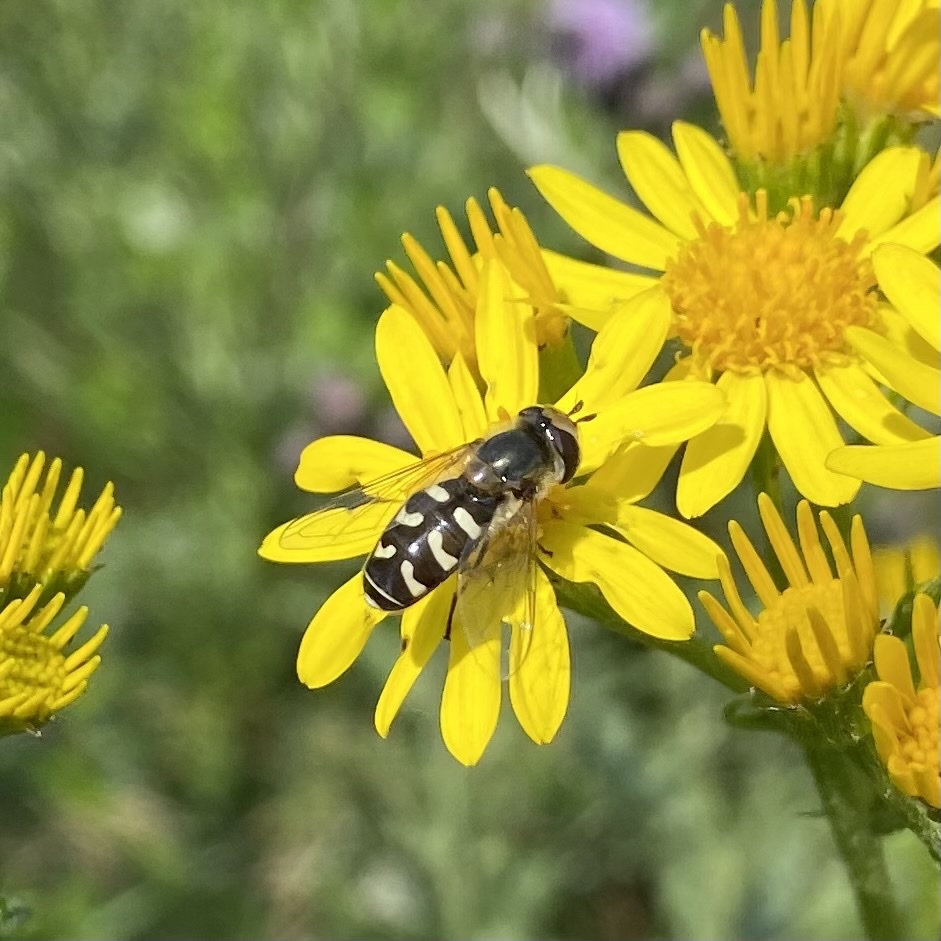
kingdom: Animalia
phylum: Arthropoda
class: Insecta
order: Diptera
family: Syrphidae
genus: Scaeva
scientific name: Scaeva pyrastri
